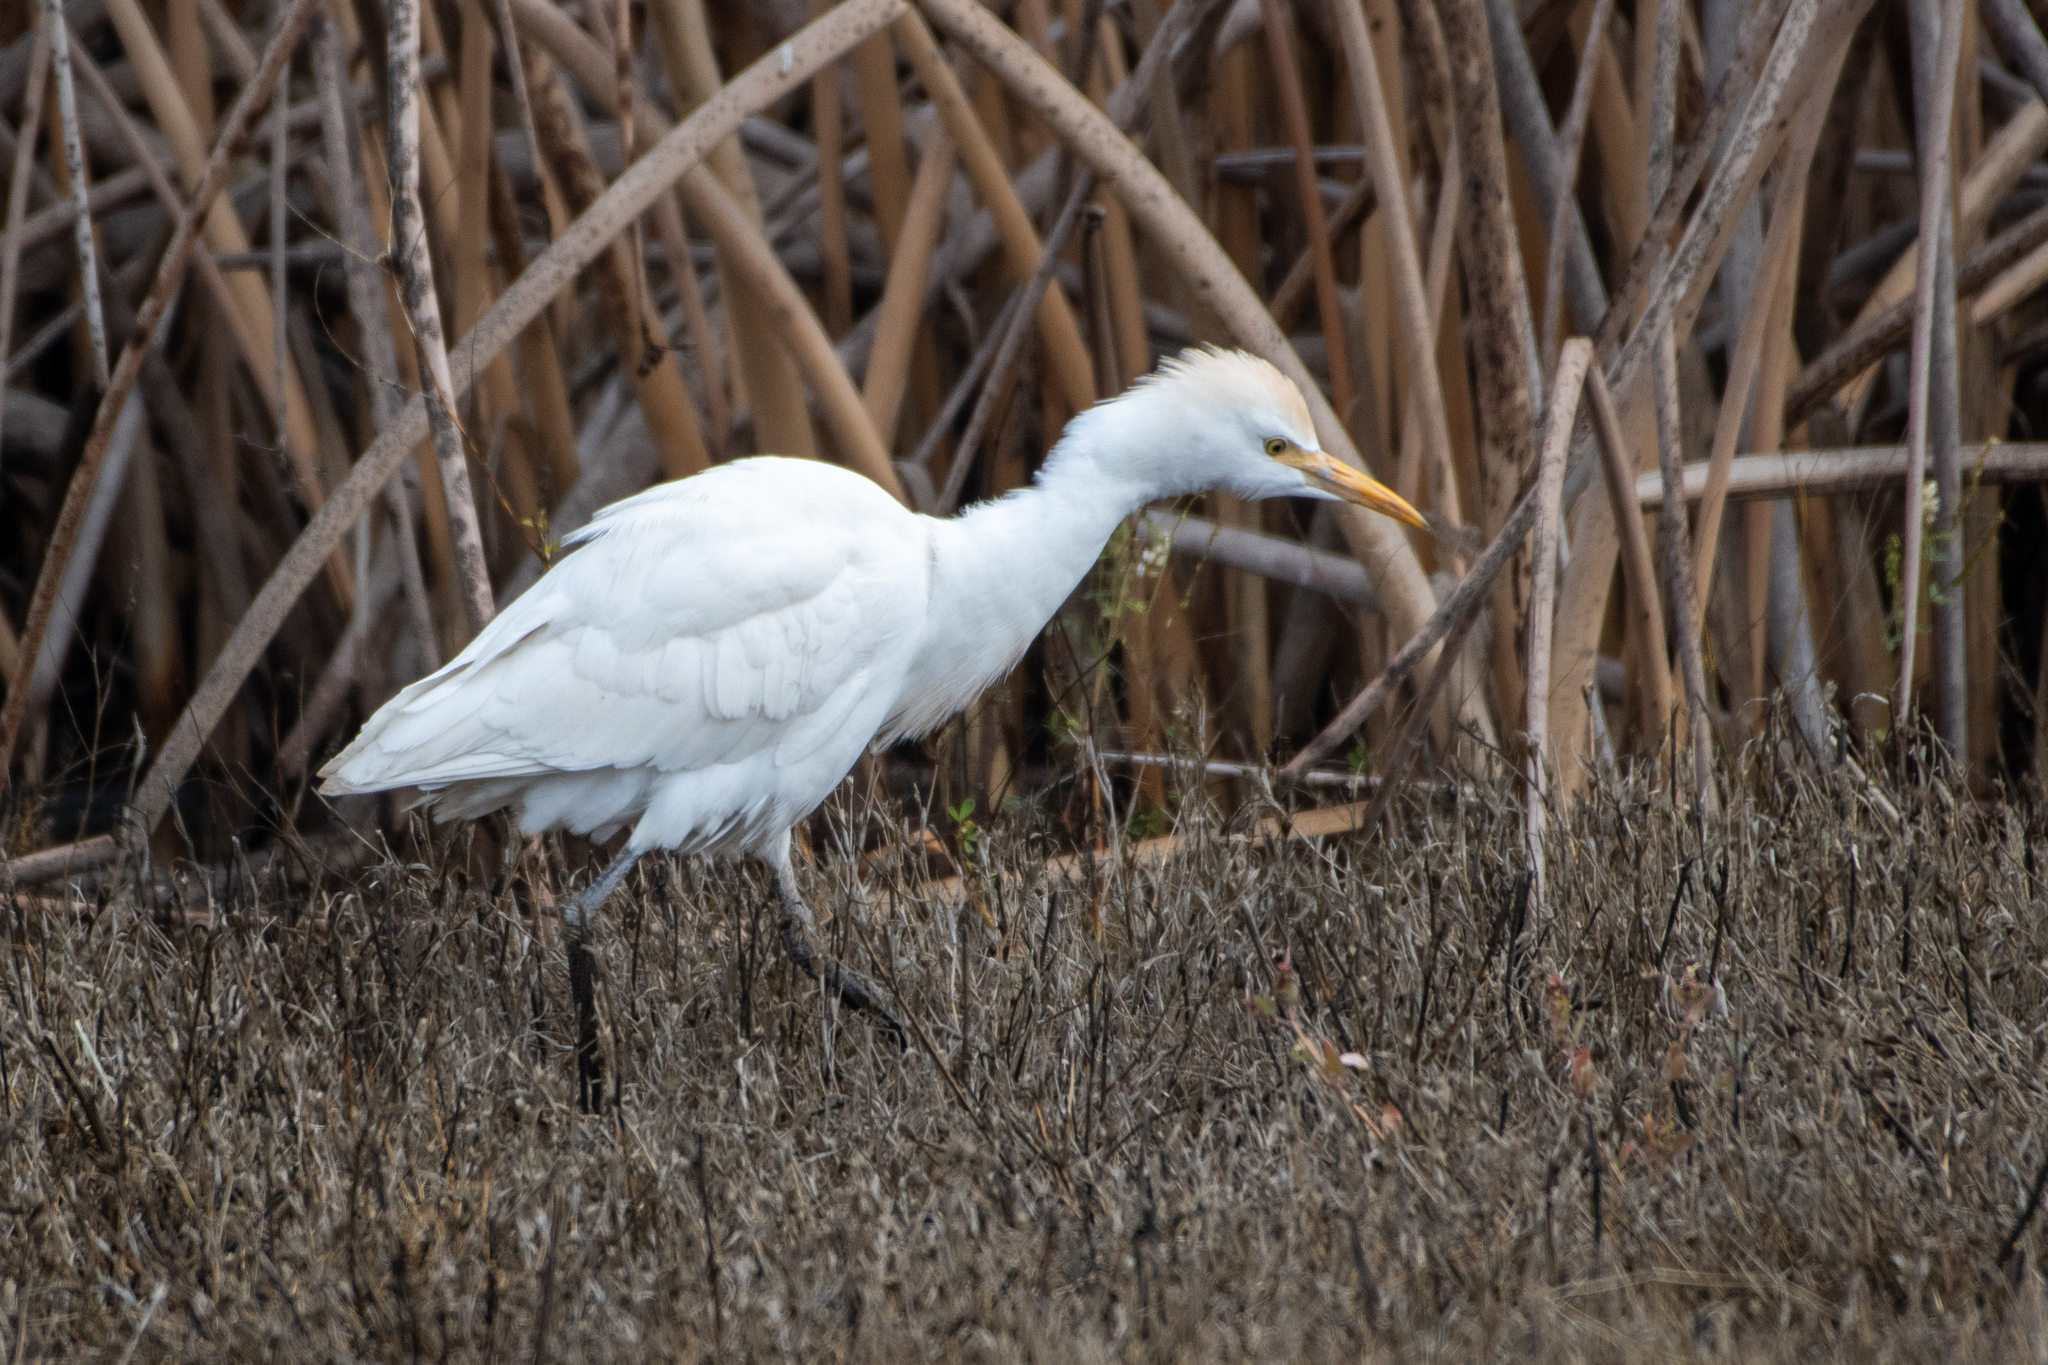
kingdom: Animalia
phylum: Chordata
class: Aves
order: Pelecaniformes
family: Ardeidae
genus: Bubulcus
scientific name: Bubulcus ibis
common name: Cattle egret
